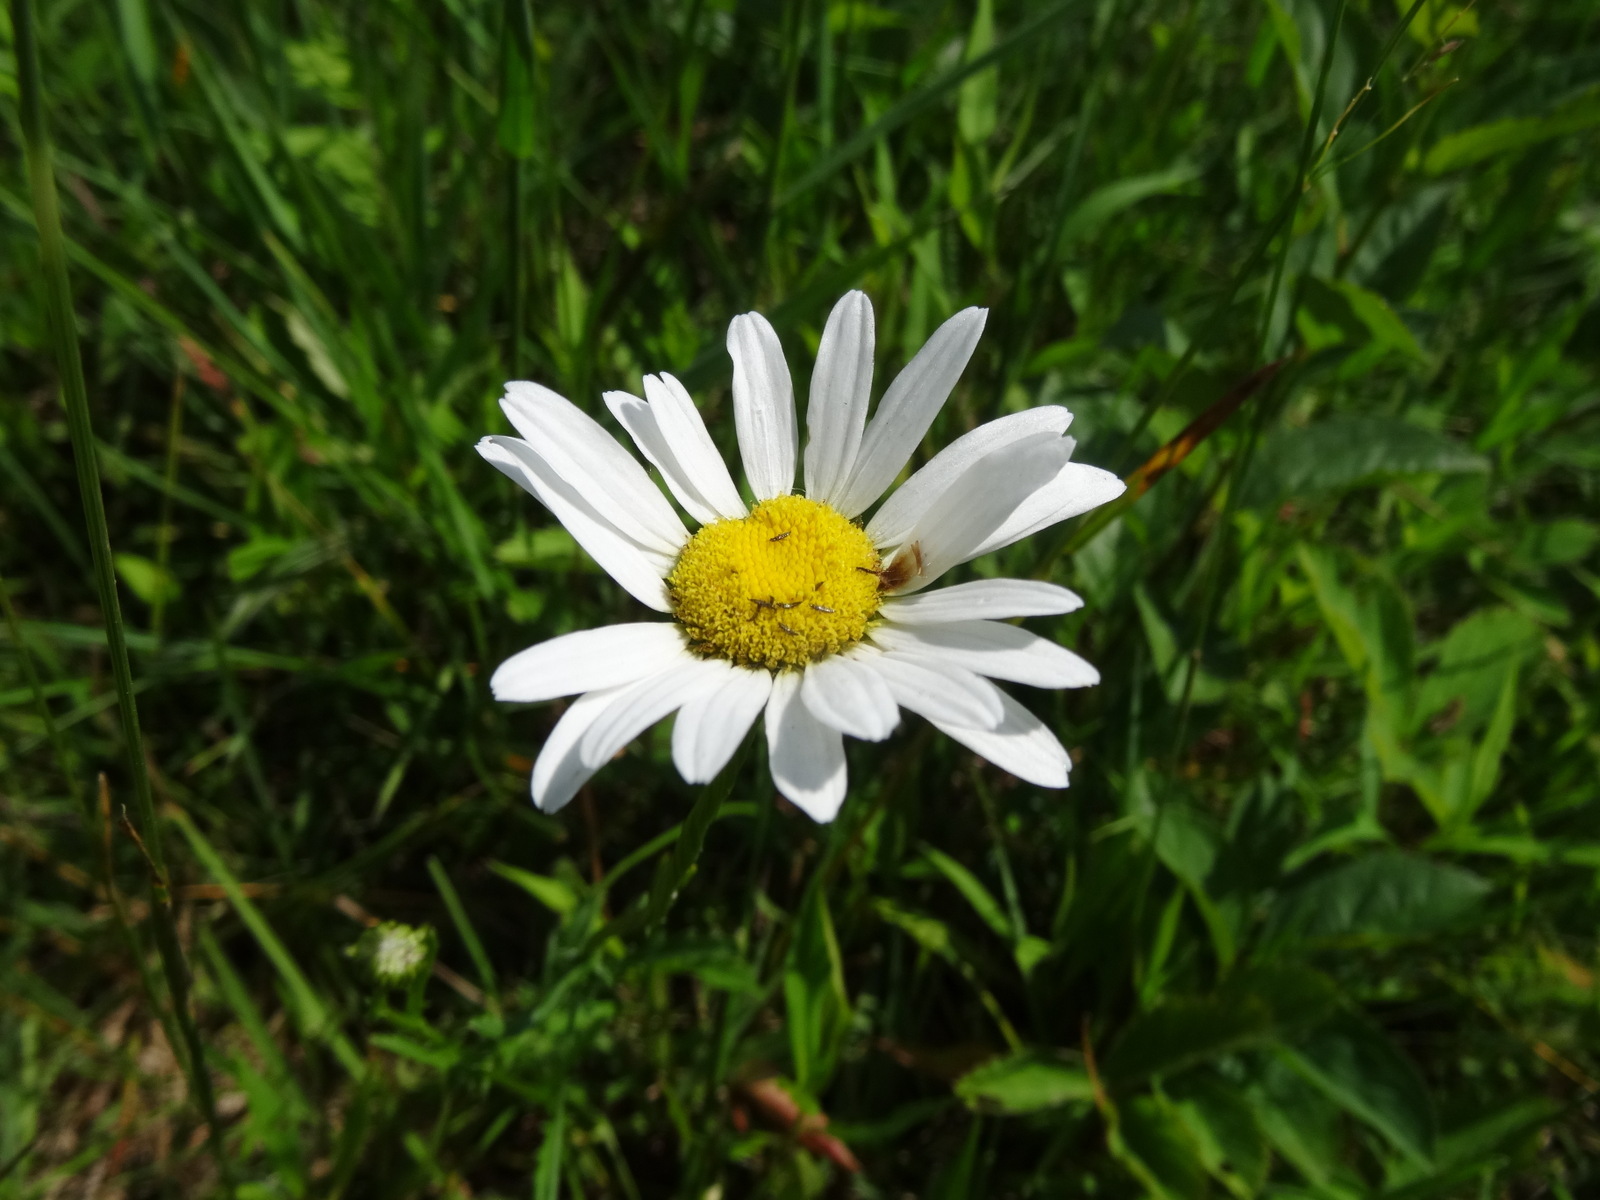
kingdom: Plantae
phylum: Tracheophyta
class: Magnoliopsida
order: Asterales
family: Asteraceae
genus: Leucanthemum
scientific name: Leucanthemum vulgare
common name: Oxeye daisy
